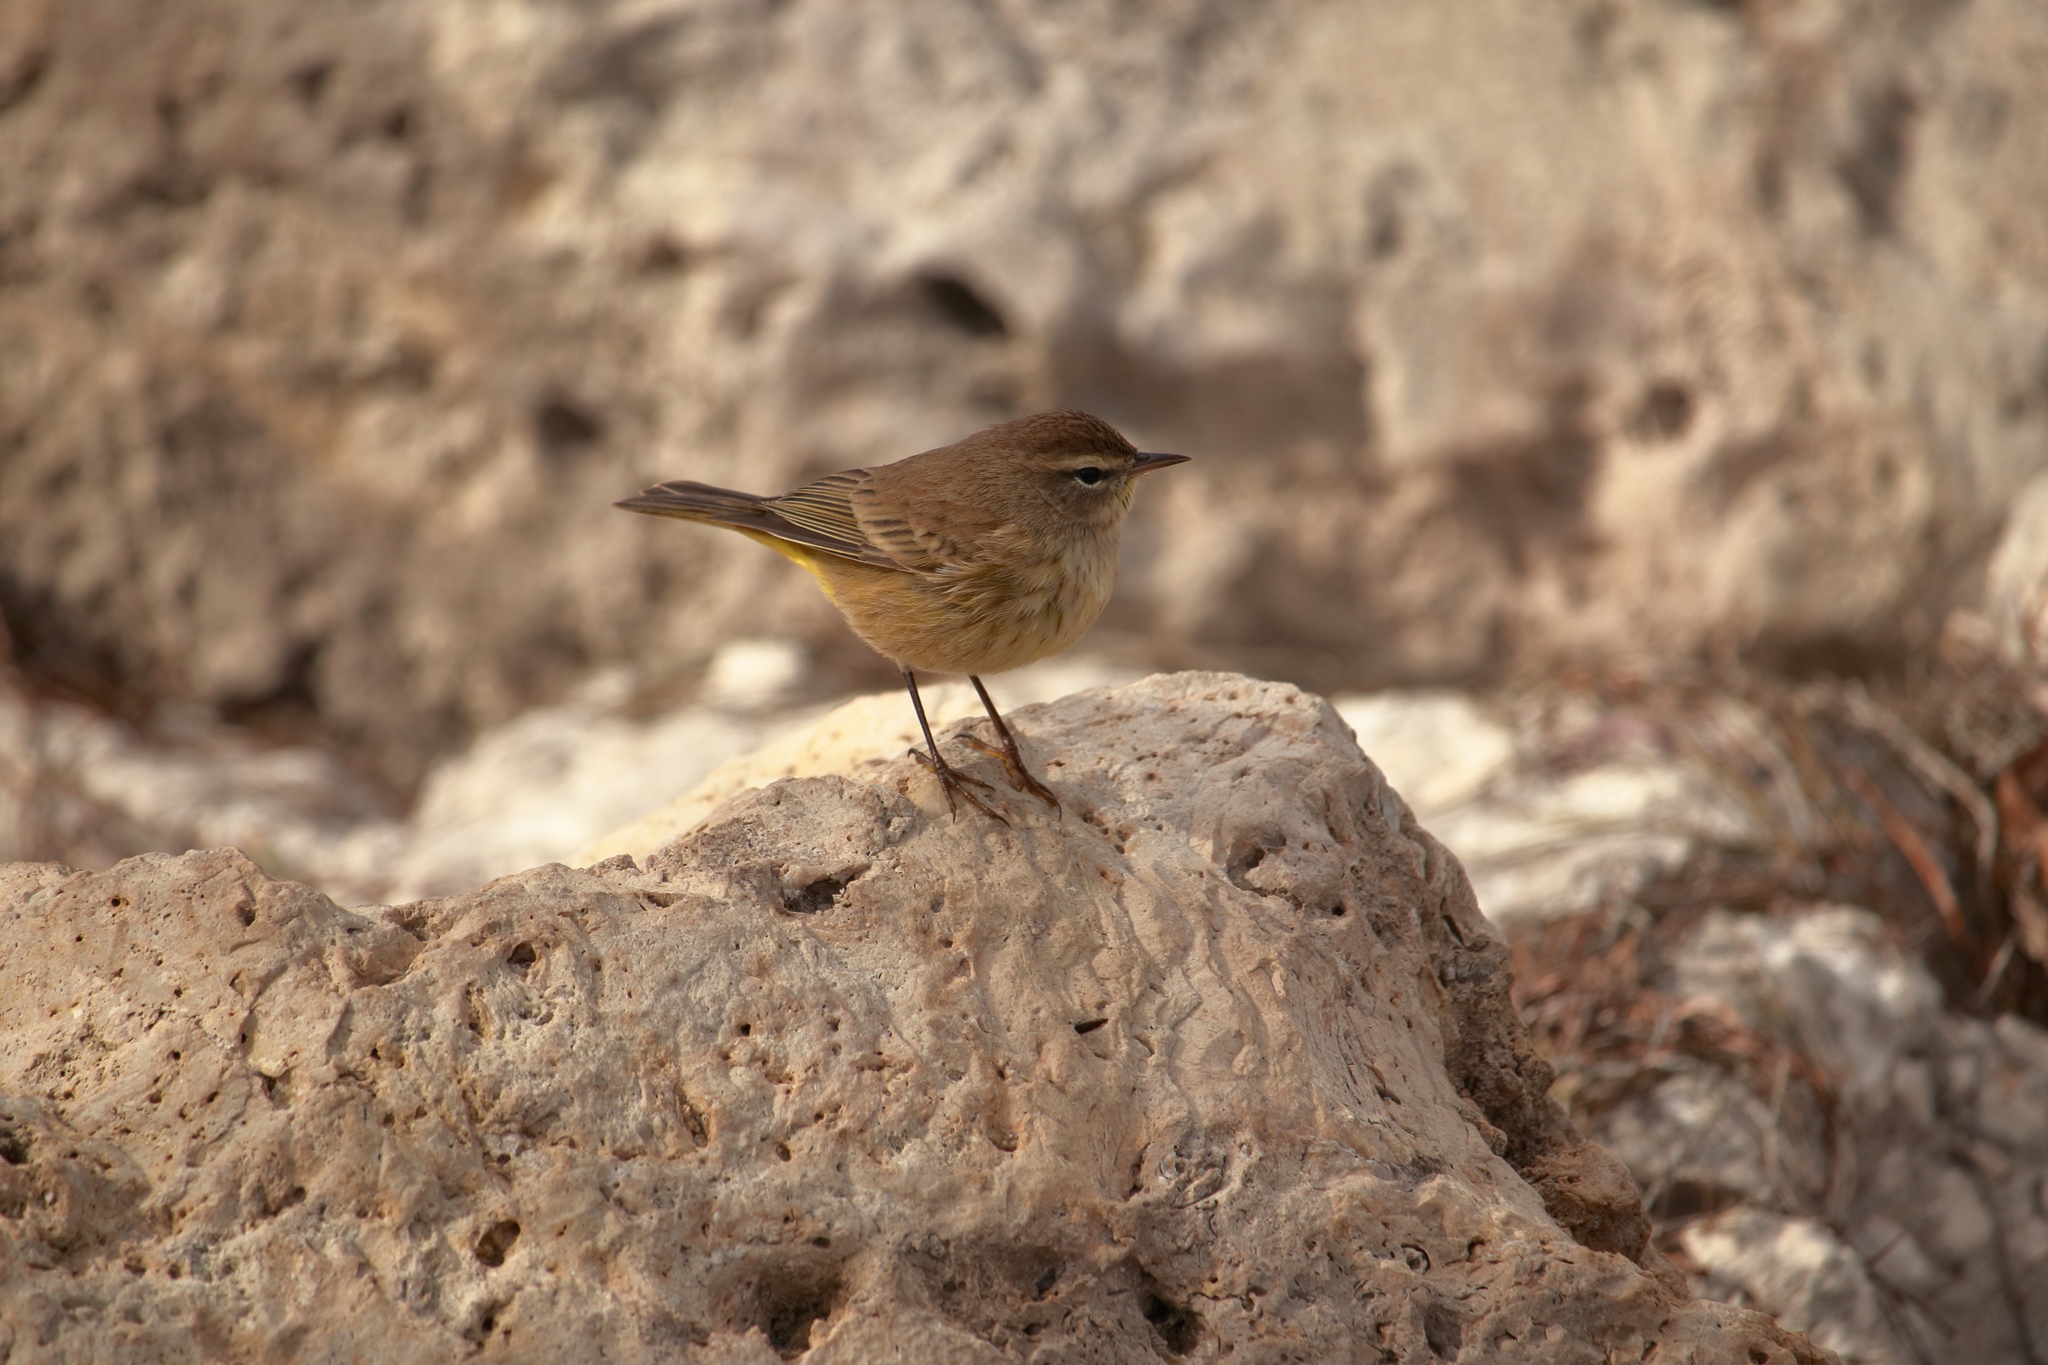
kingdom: Animalia
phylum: Chordata
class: Aves
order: Passeriformes
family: Parulidae
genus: Setophaga
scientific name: Setophaga palmarum
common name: Palm warbler
